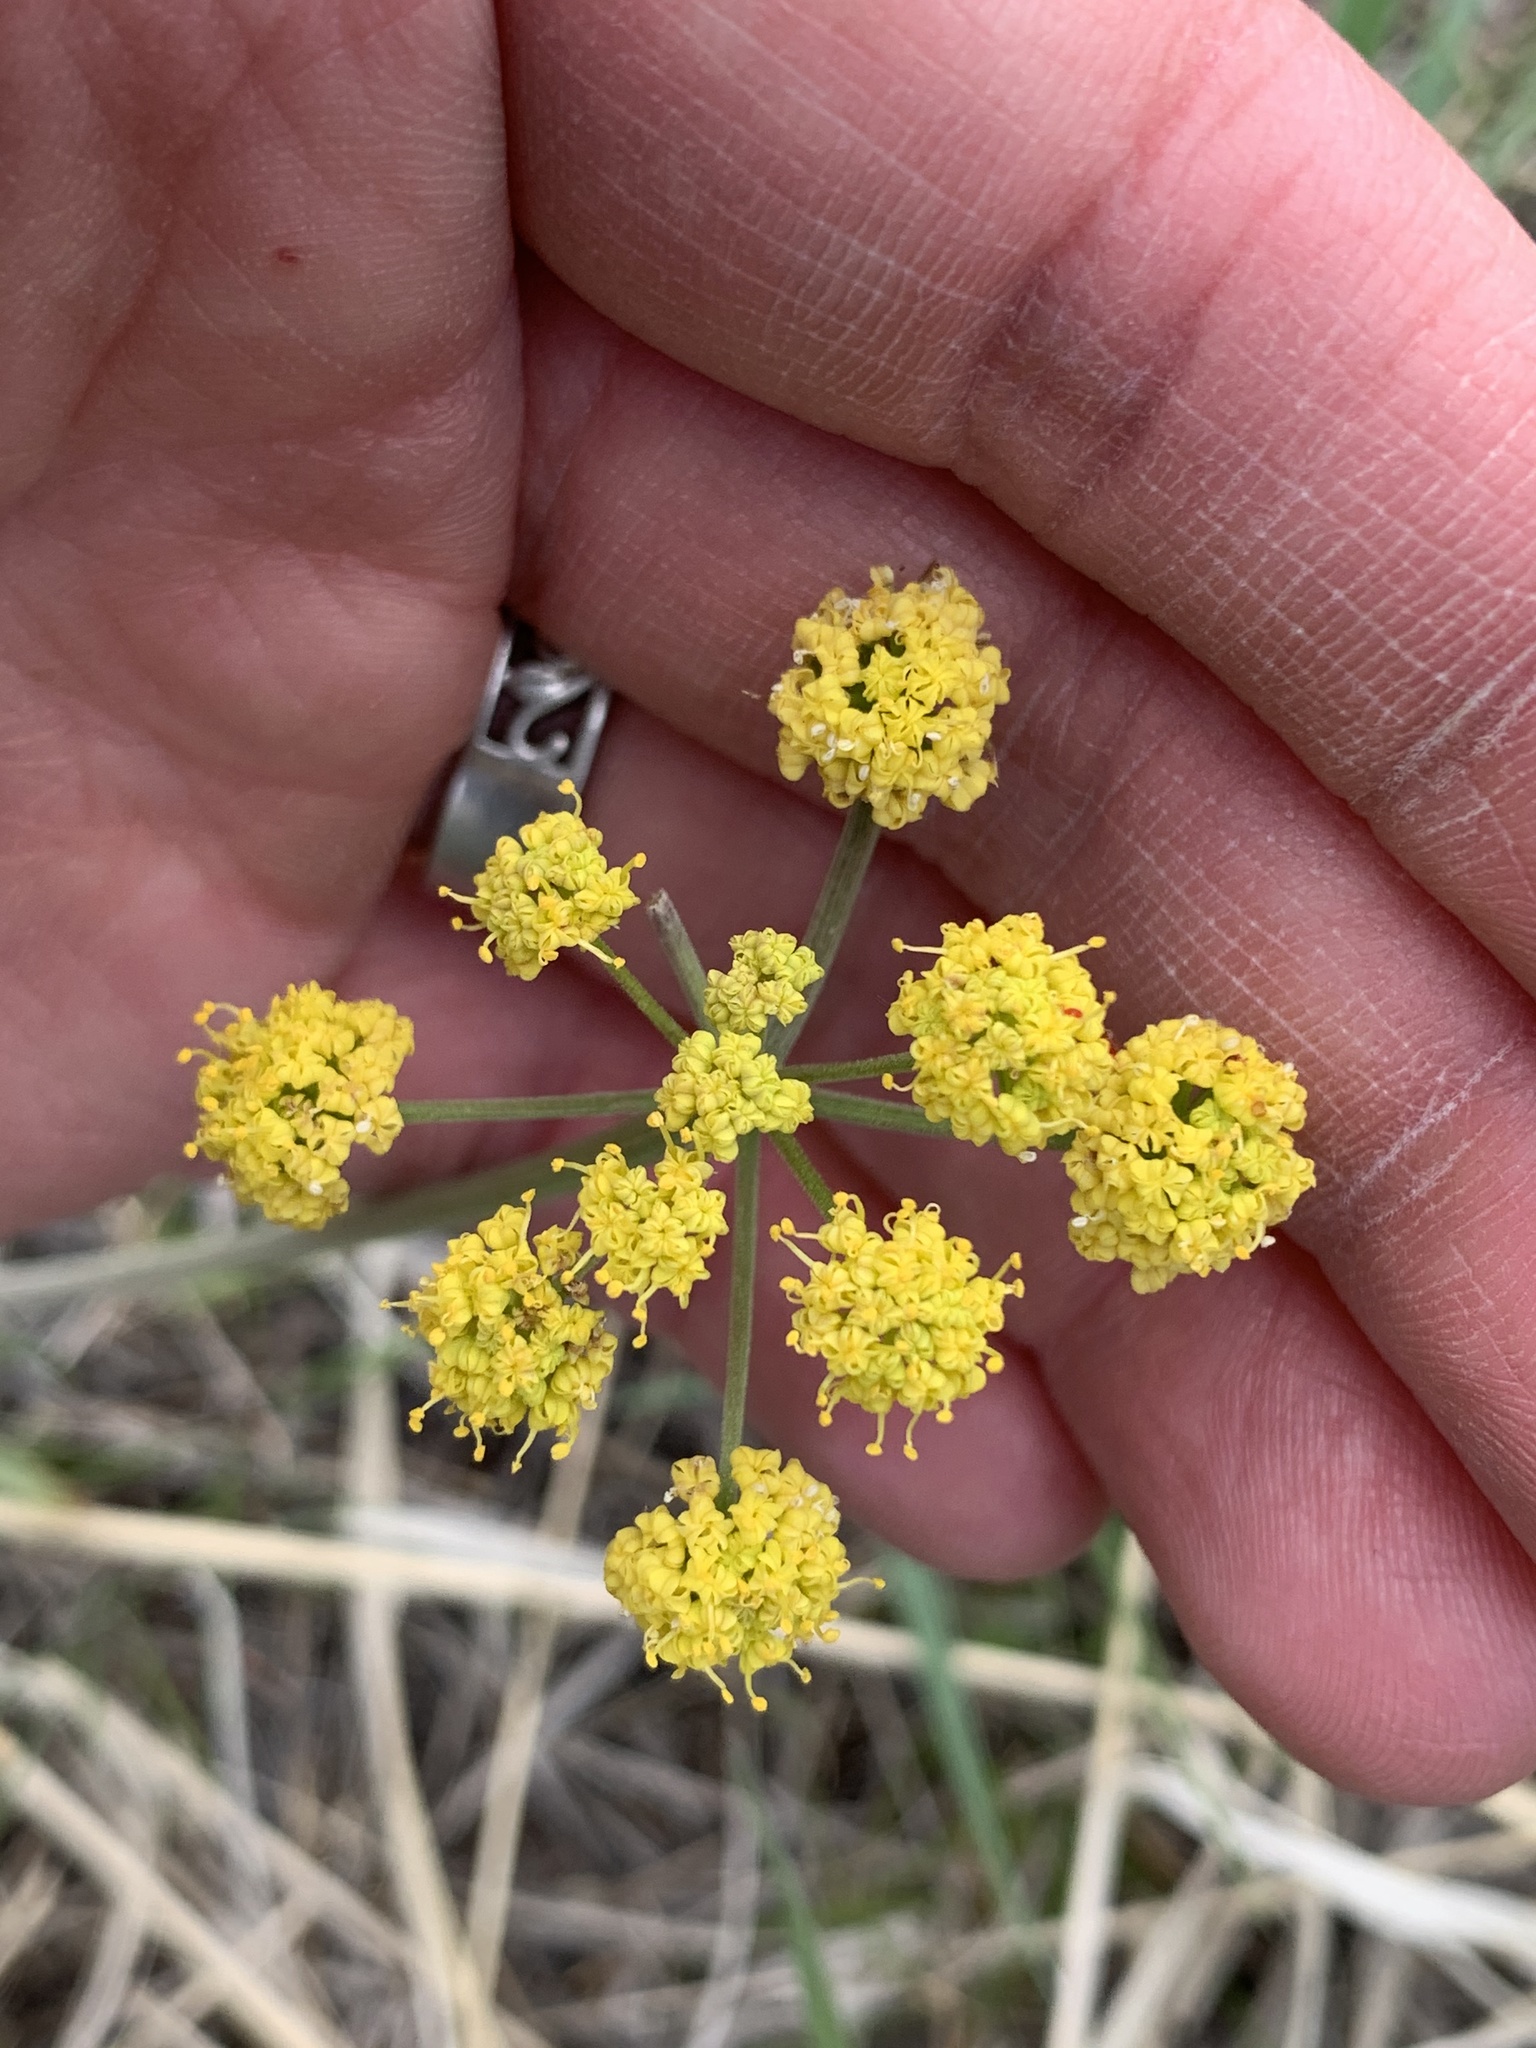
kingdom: Plantae
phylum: Tracheophyta
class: Magnoliopsida
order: Apiales
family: Apiaceae
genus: Lomatium
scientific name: Lomatium triternatum
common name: Ternate lomatium
